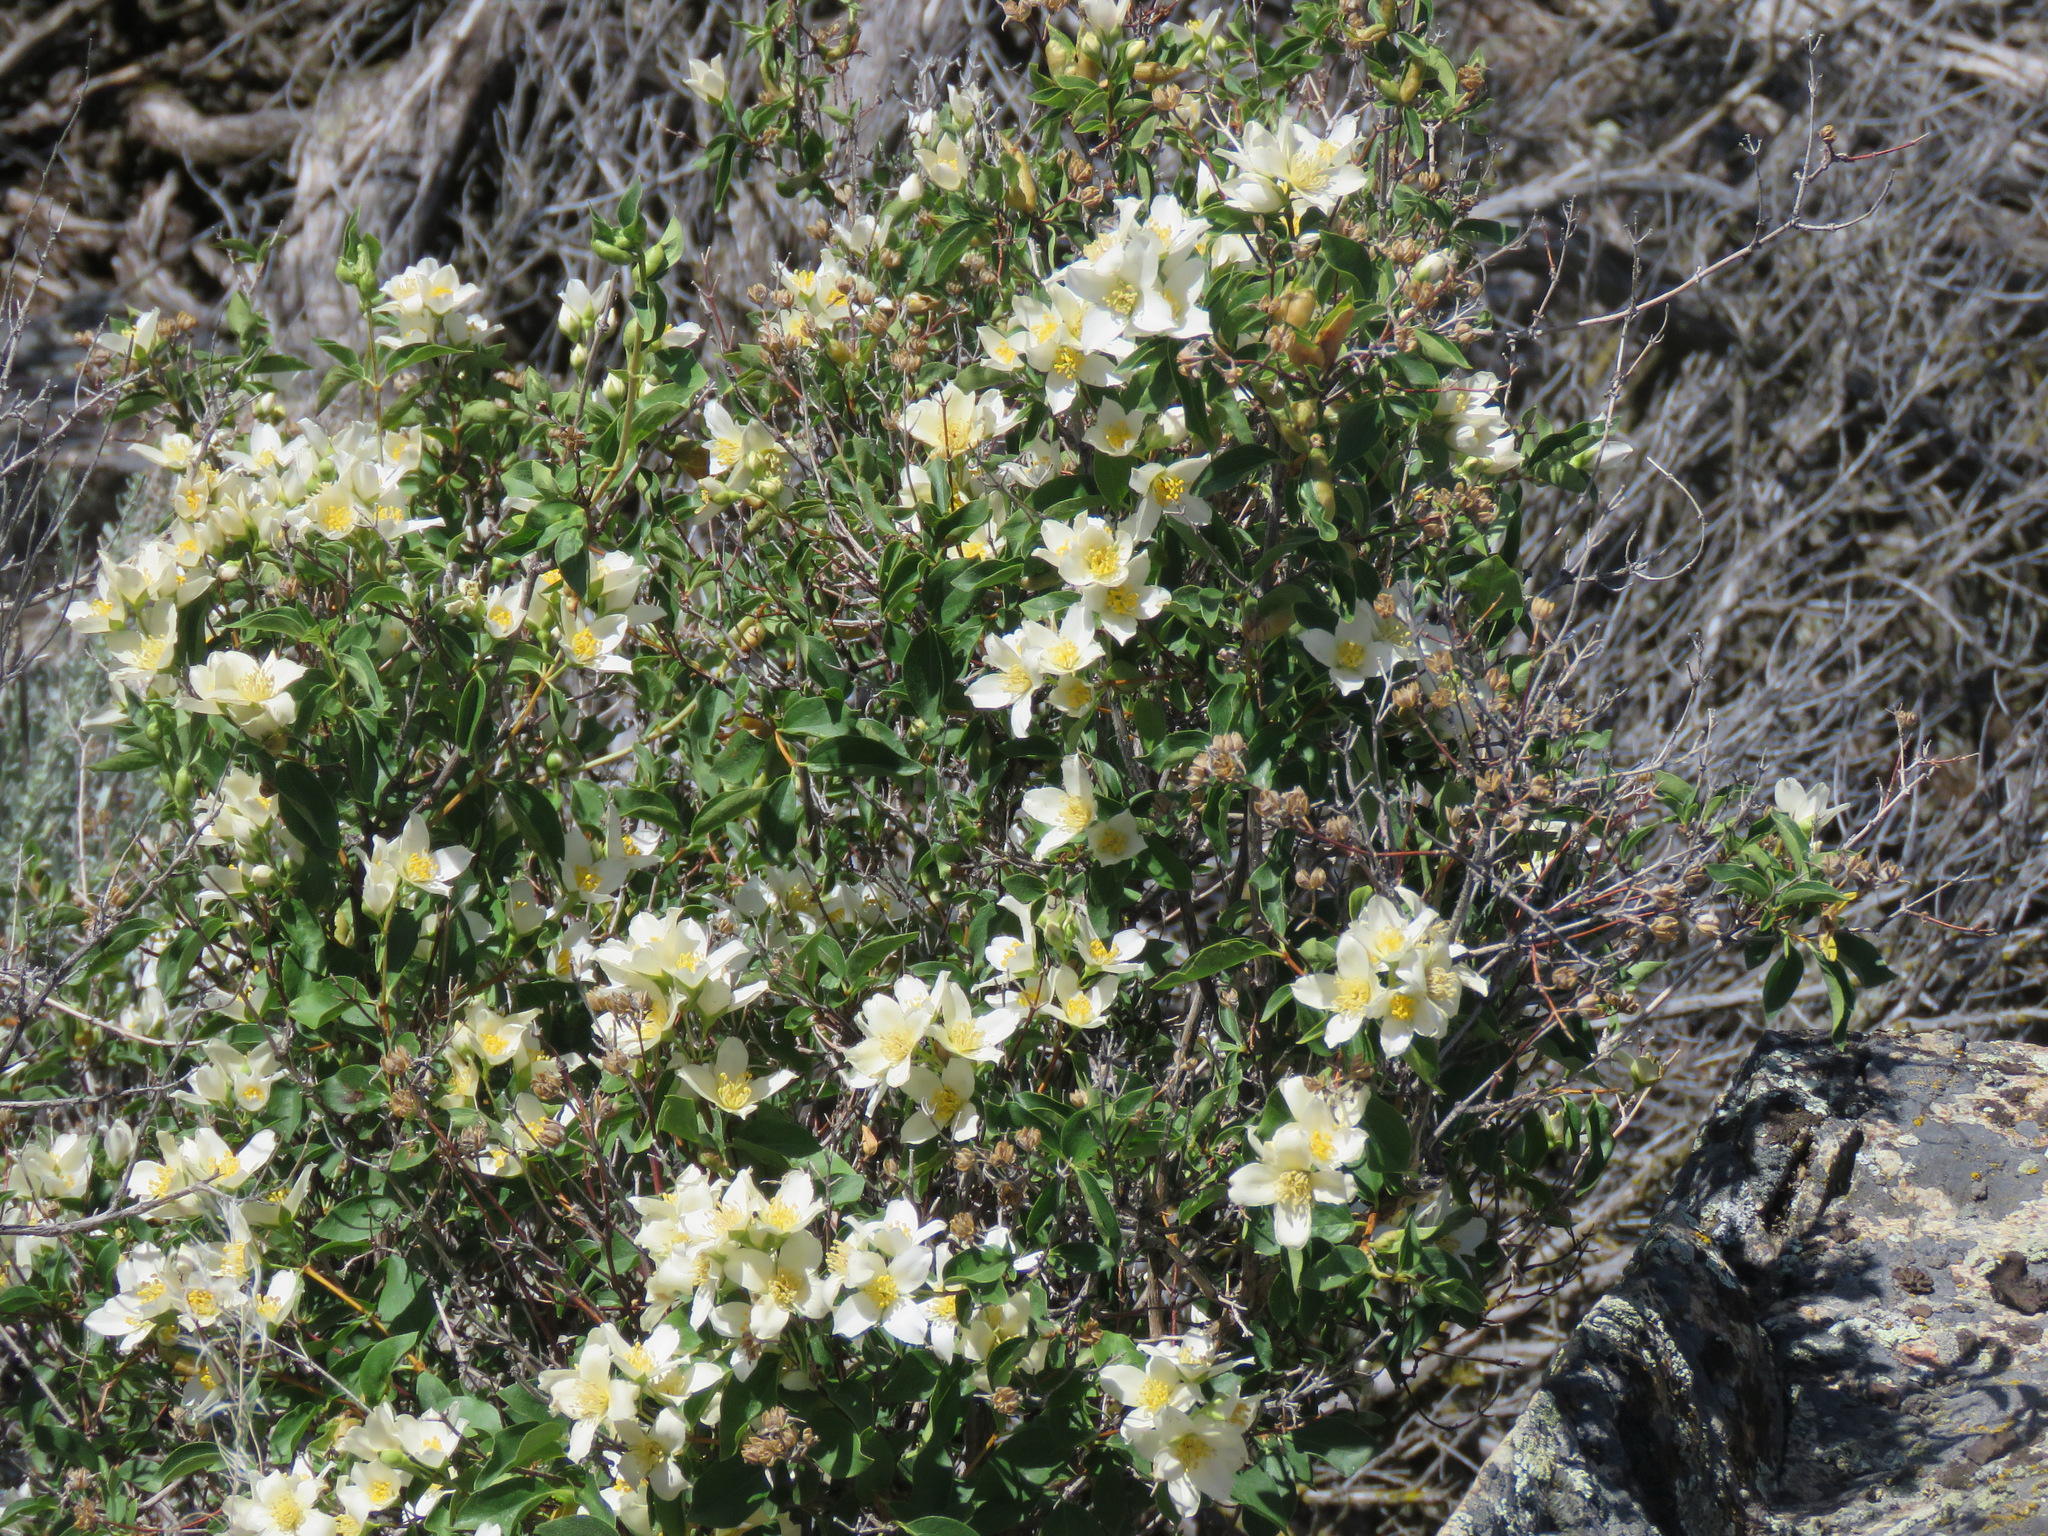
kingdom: Plantae
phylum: Tracheophyta
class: Magnoliopsida
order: Cornales
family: Hydrangeaceae
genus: Philadelphus
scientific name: Philadelphus lewisii
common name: Lewis's mock orange
